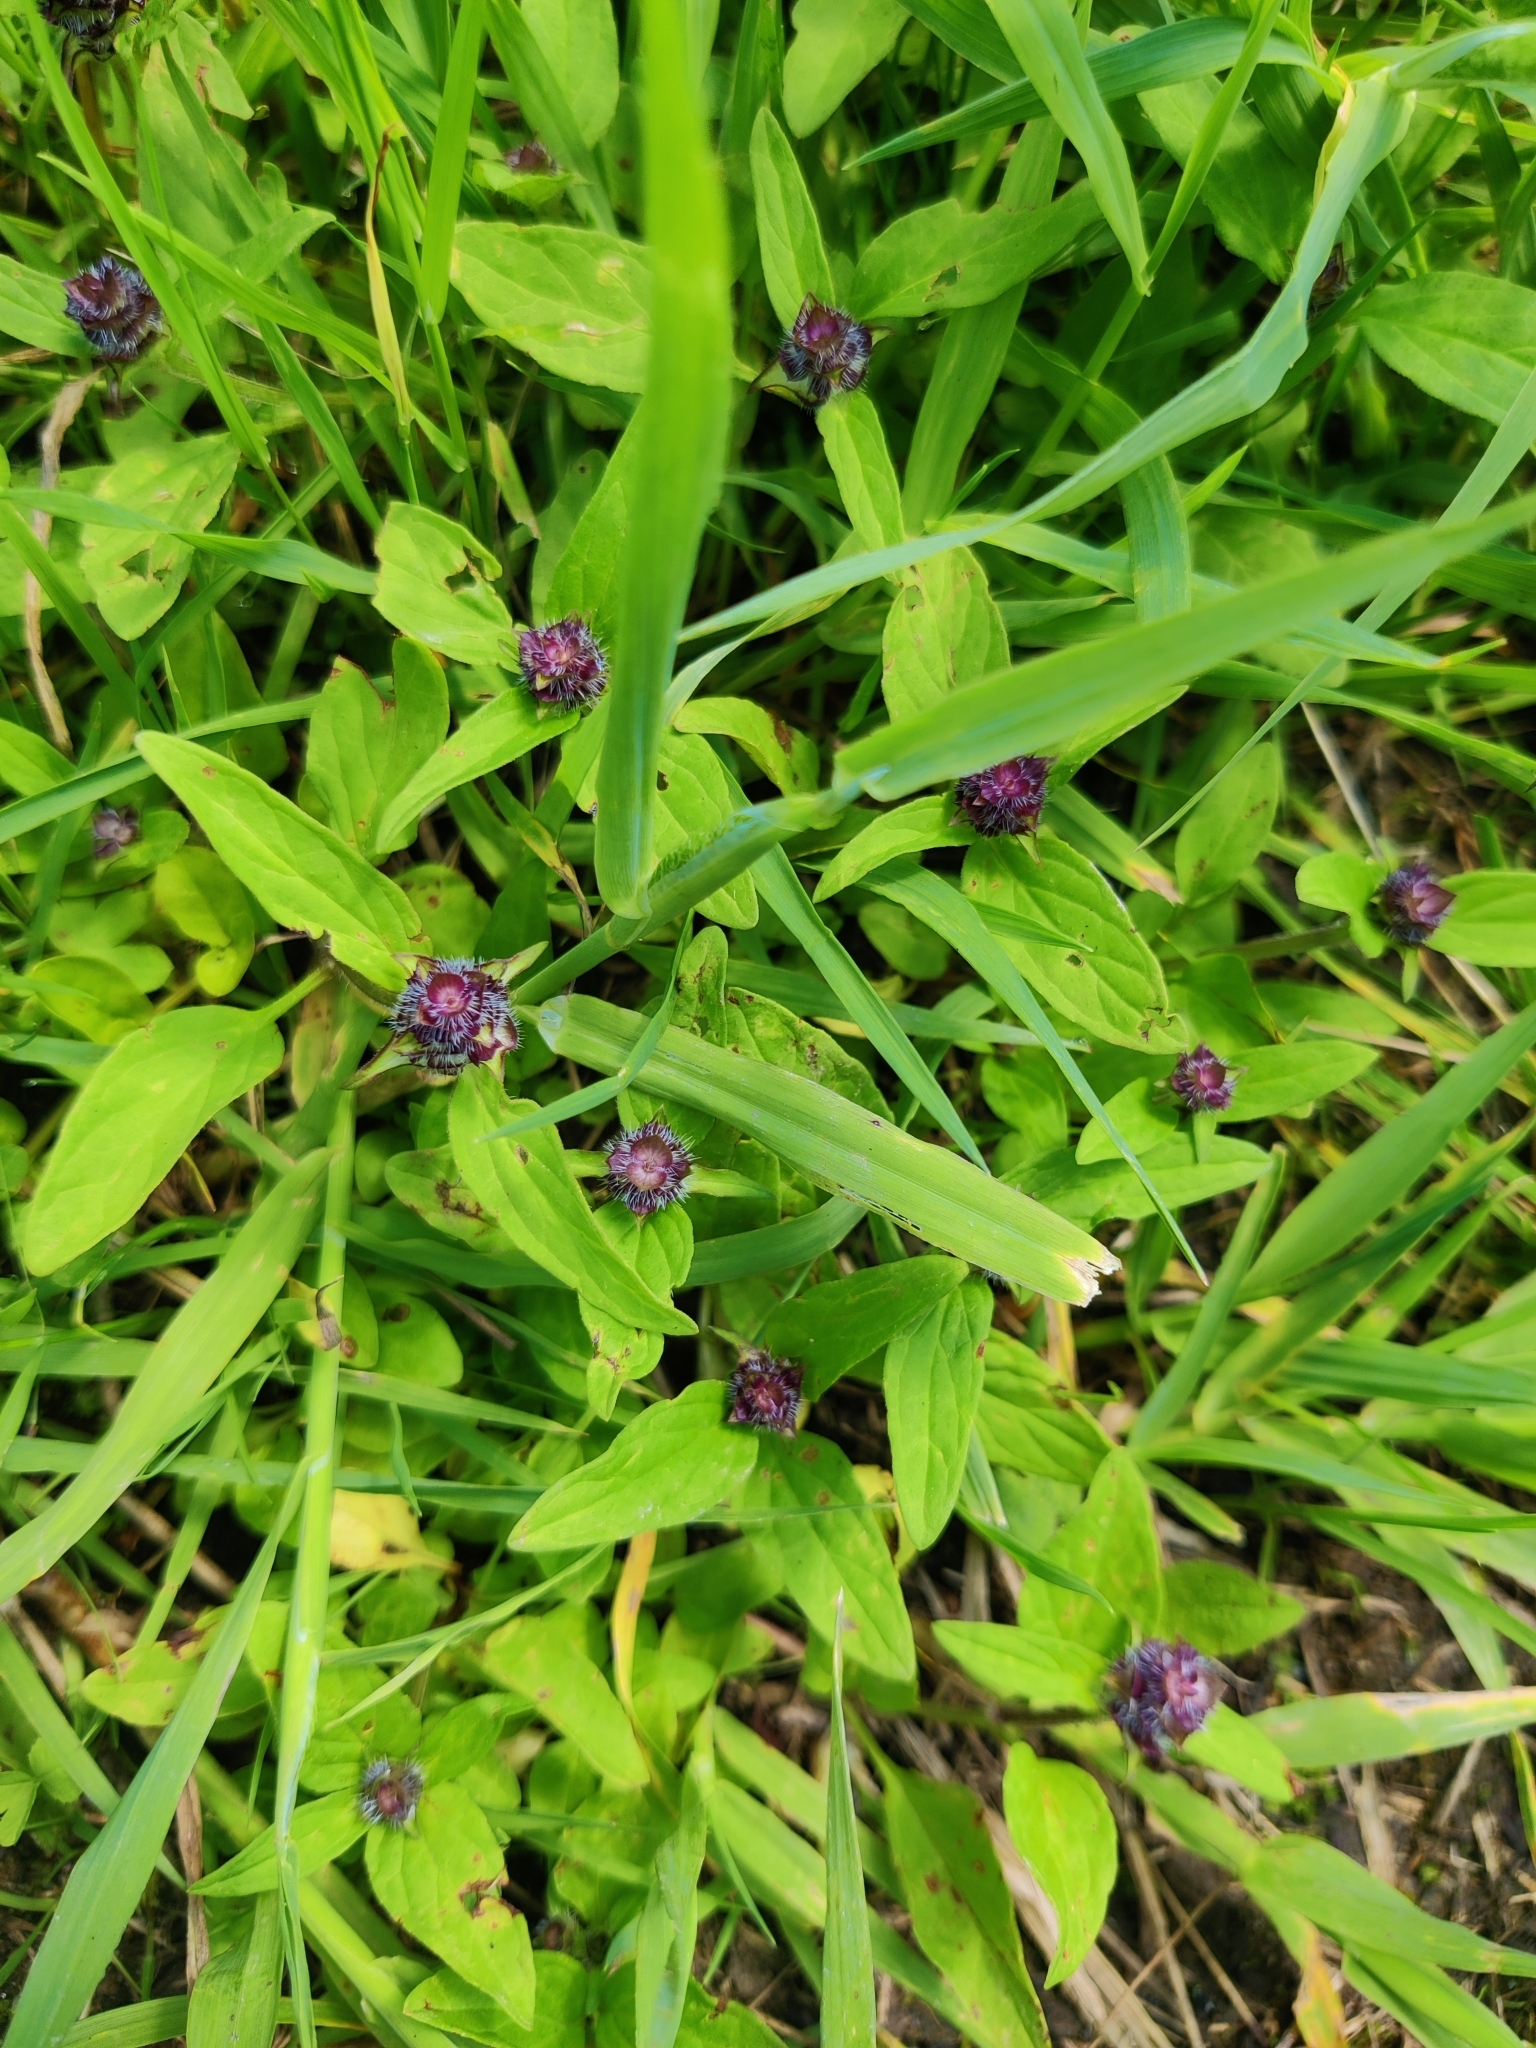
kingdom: Plantae
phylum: Tracheophyta
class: Magnoliopsida
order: Lamiales
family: Lamiaceae
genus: Prunella
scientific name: Prunella vulgaris
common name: Heal-all
